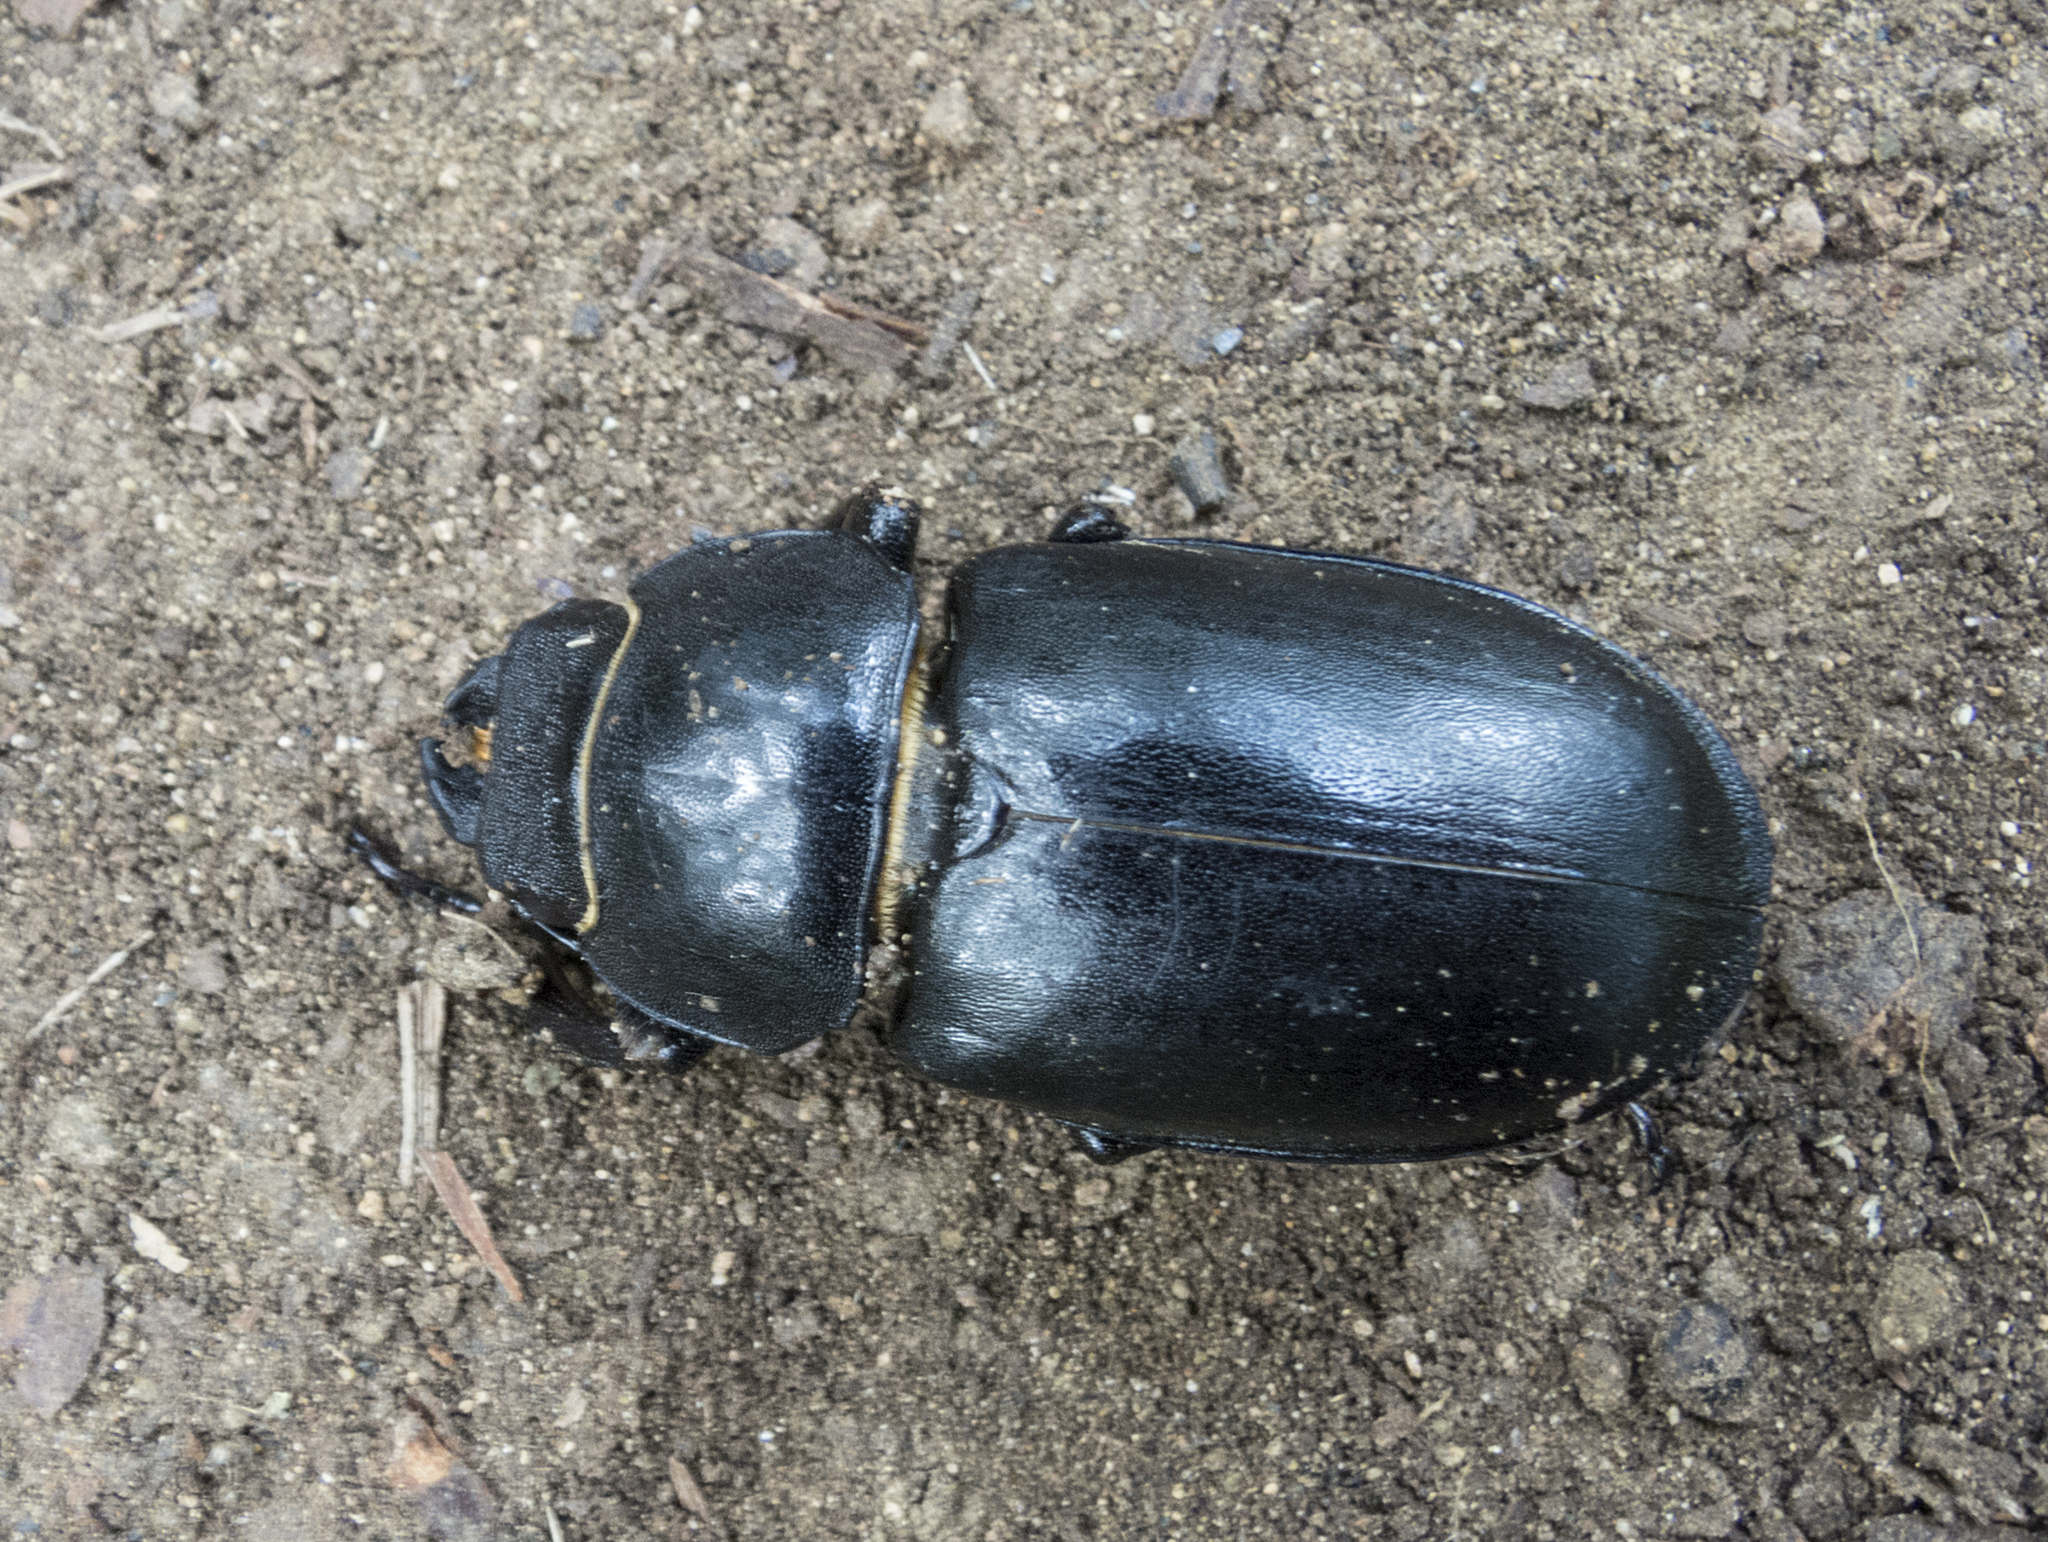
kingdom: Animalia
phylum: Arthropoda
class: Insecta
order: Coleoptera
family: Lucanidae
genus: Lucanus
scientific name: Lucanus cervus
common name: Stag beetle
